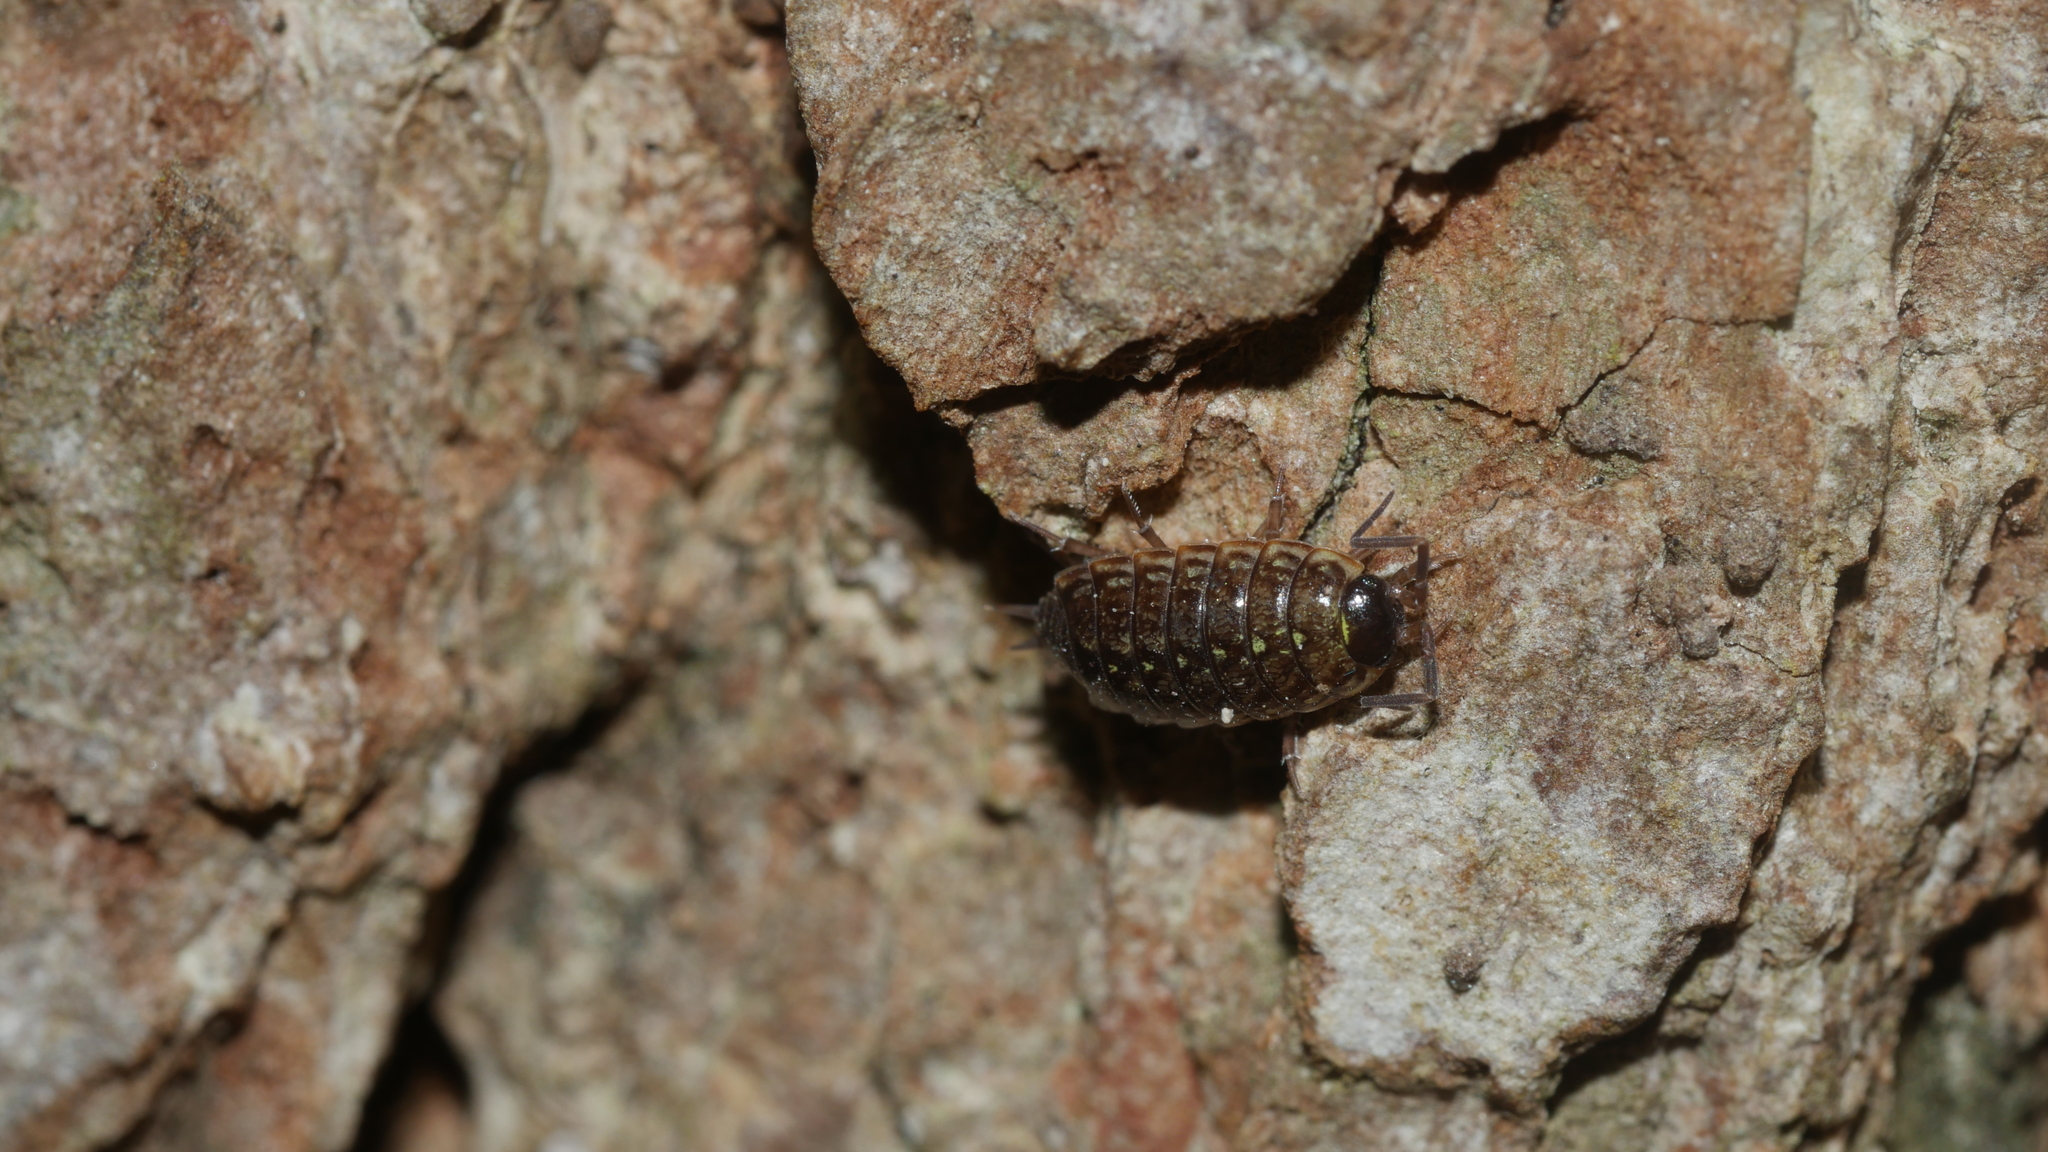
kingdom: Animalia
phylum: Arthropoda
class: Malacostraca
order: Isopoda
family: Philosciidae
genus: Philoscia
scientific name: Philoscia muscorum
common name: Common striped woodlouse
